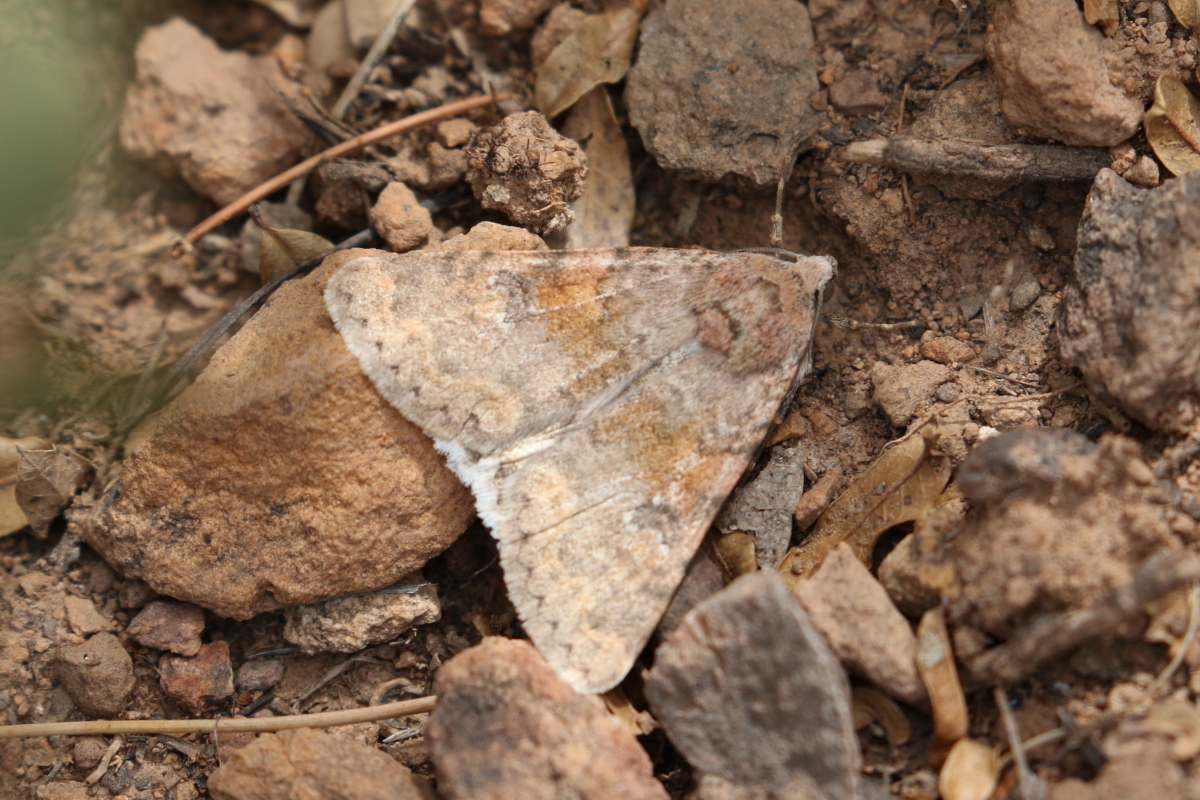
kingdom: Animalia
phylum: Arthropoda
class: Insecta
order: Lepidoptera
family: Erebidae
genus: Drasteria
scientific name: Drasteria inepta
